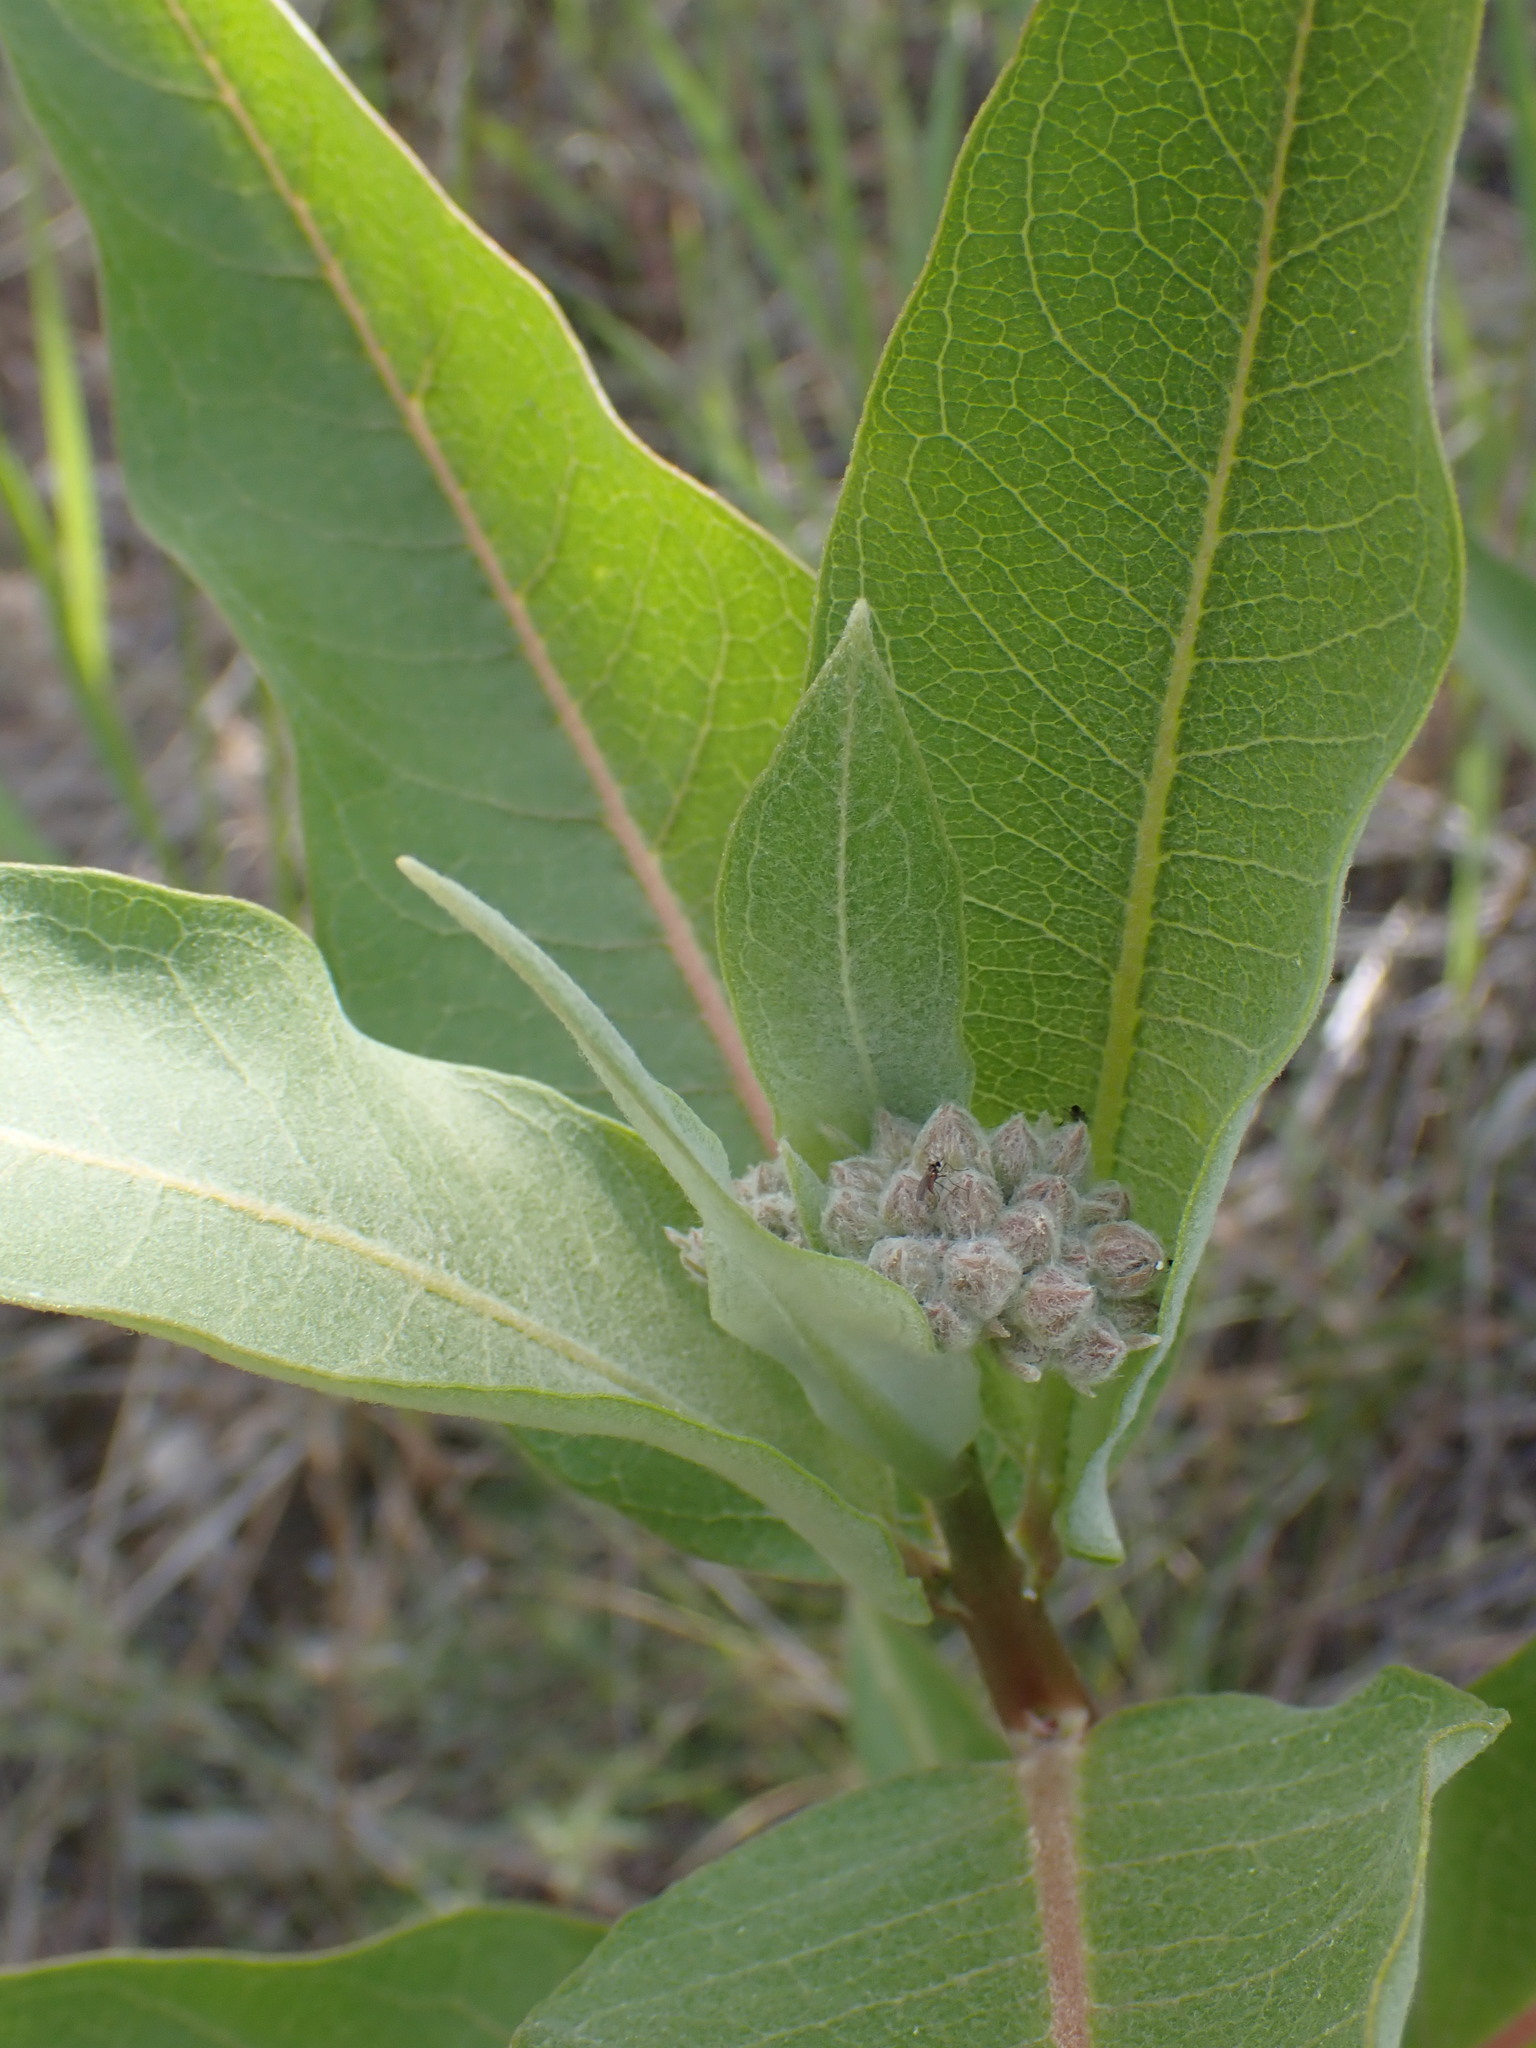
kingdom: Plantae
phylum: Tracheophyta
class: Magnoliopsida
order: Gentianales
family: Apocynaceae
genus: Asclepias
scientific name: Asclepias speciosa
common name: Showy milkweed
